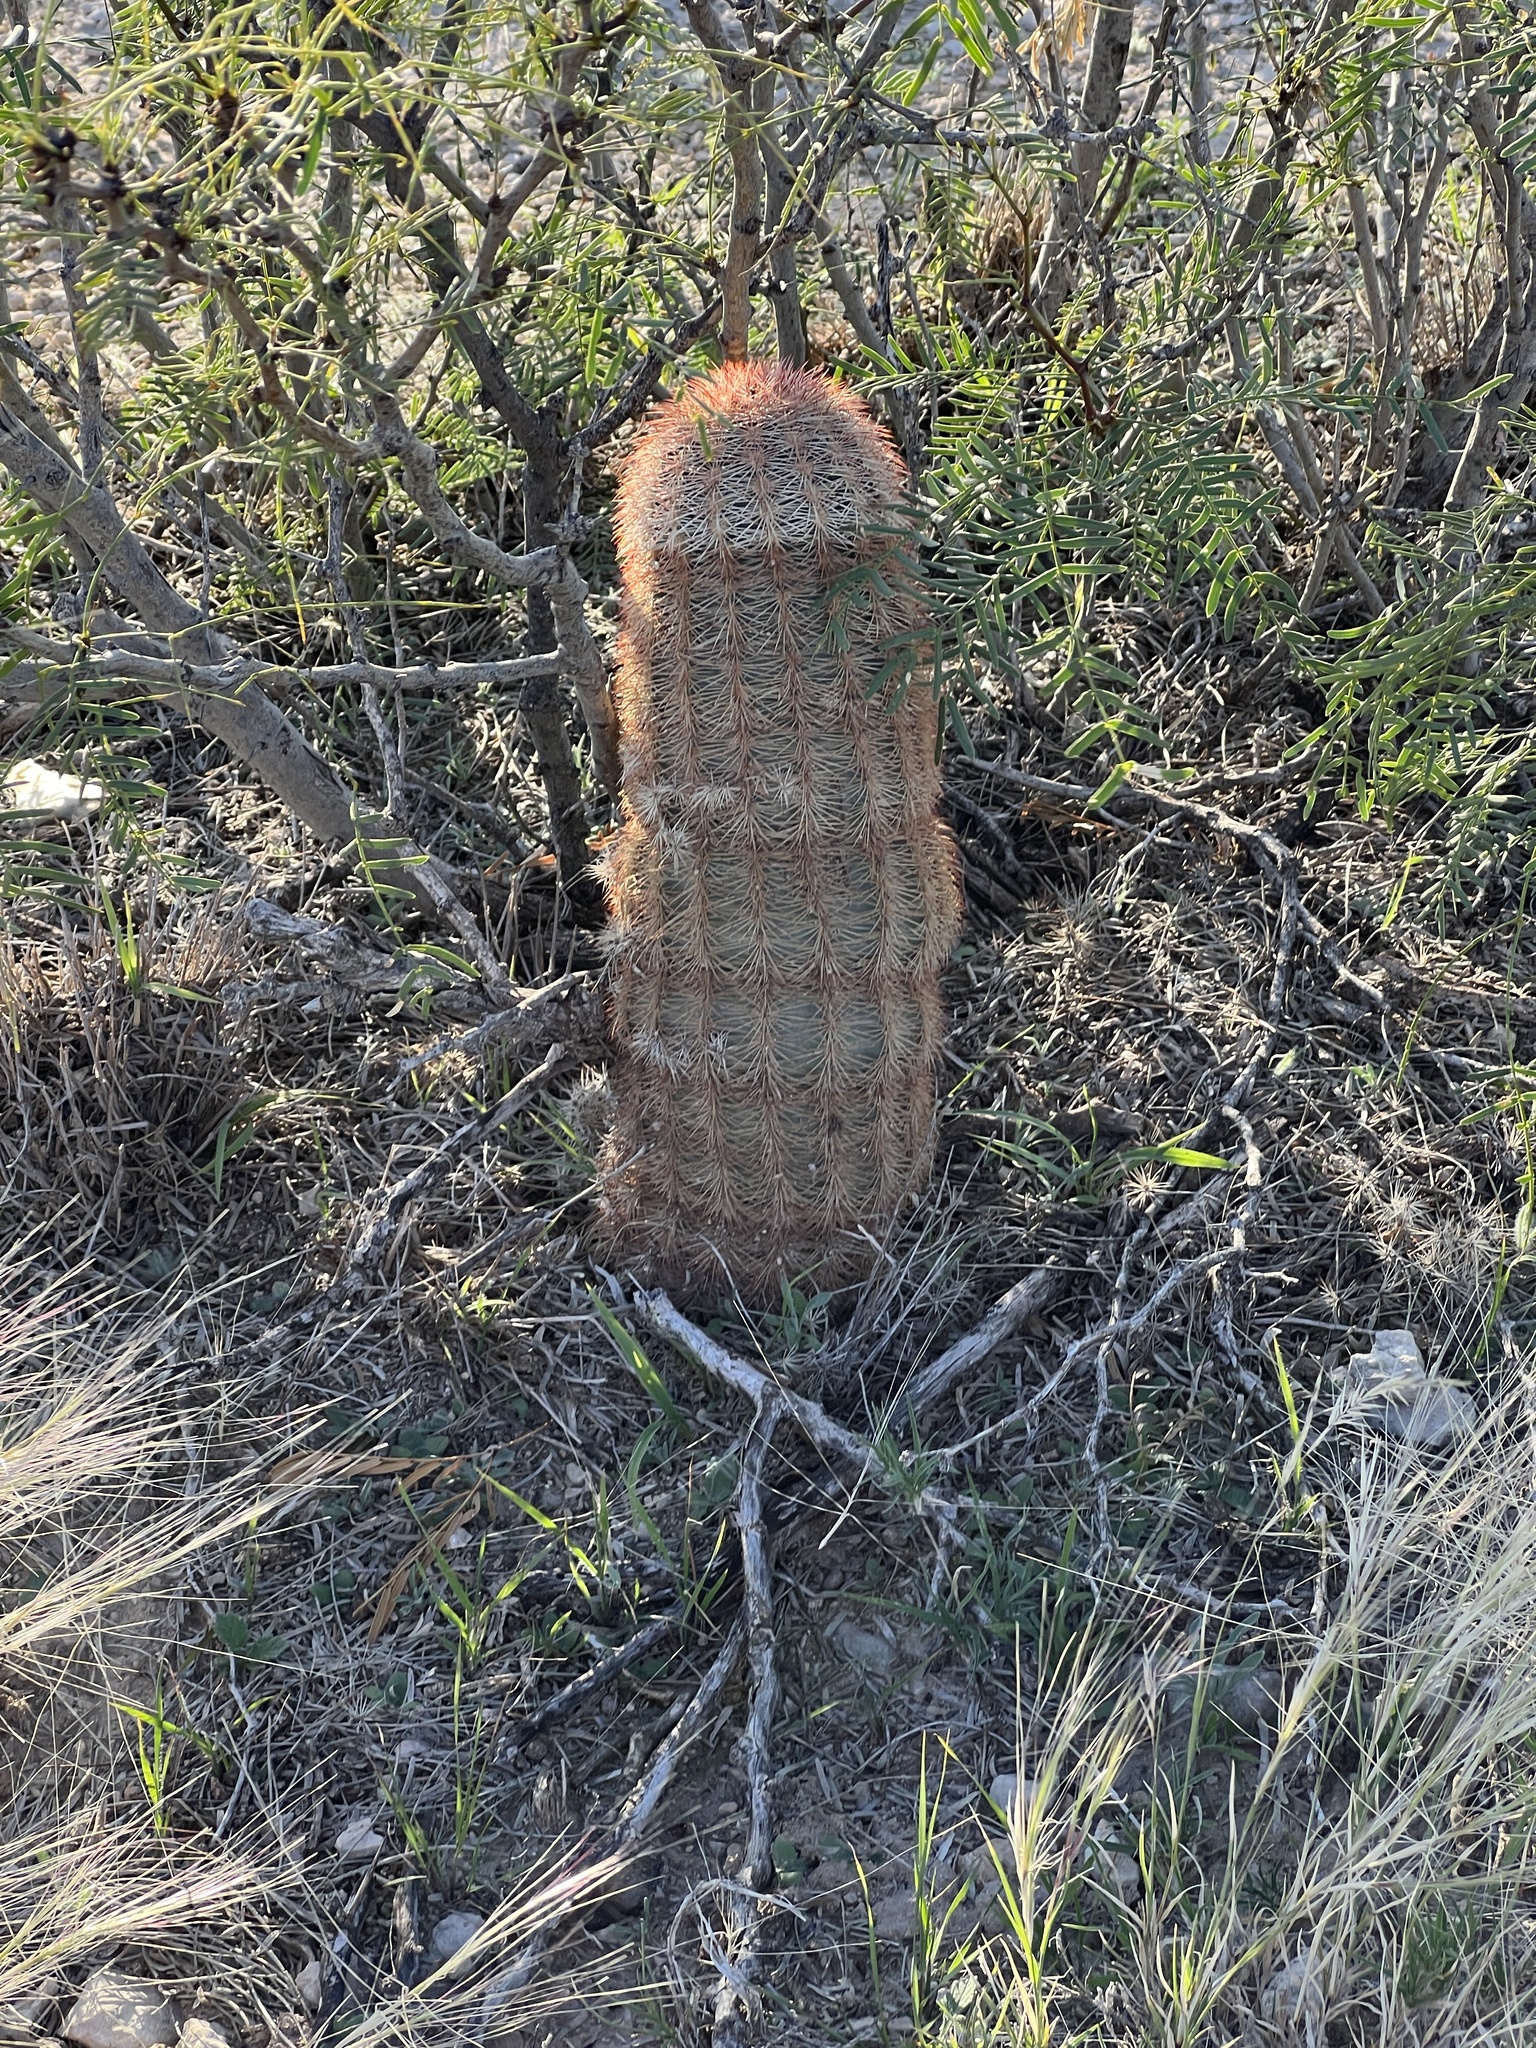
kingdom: Plantae
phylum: Tracheophyta
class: Magnoliopsida
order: Caryophyllales
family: Cactaceae
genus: Echinocereus
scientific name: Echinocereus dasyacanthus
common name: Spiny hedgehog cactus
